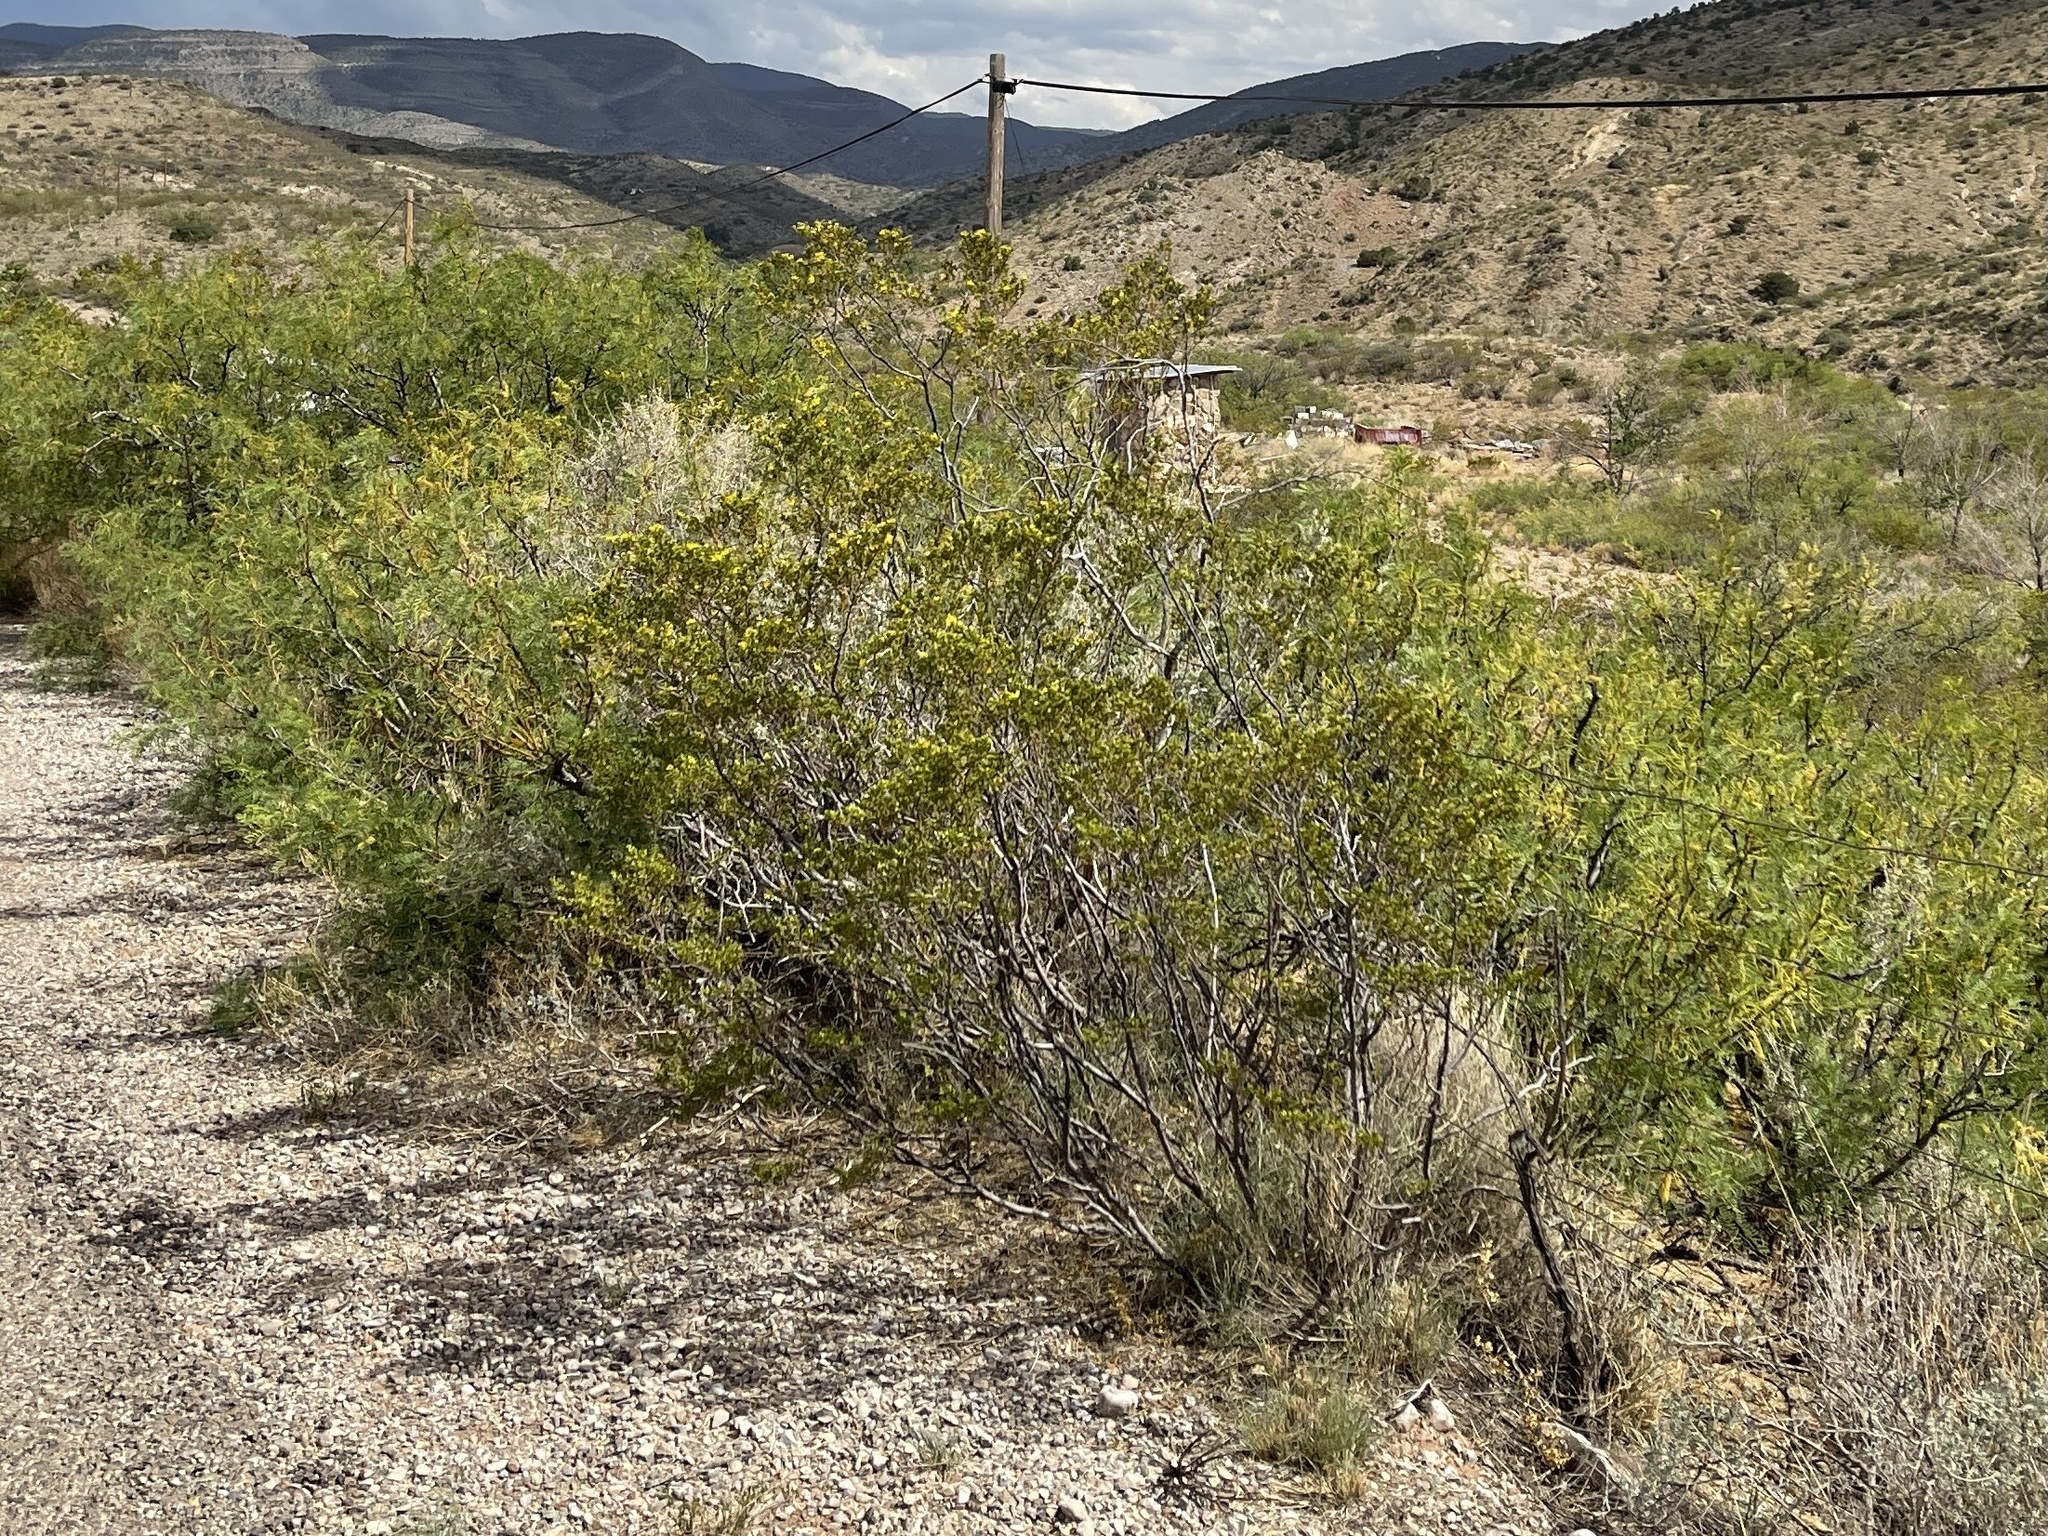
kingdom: Plantae
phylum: Tracheophyta
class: Magnoliopsida
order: Zygophyllales
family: Zygophyllaceae
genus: Larrea
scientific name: Larrea tridentata
